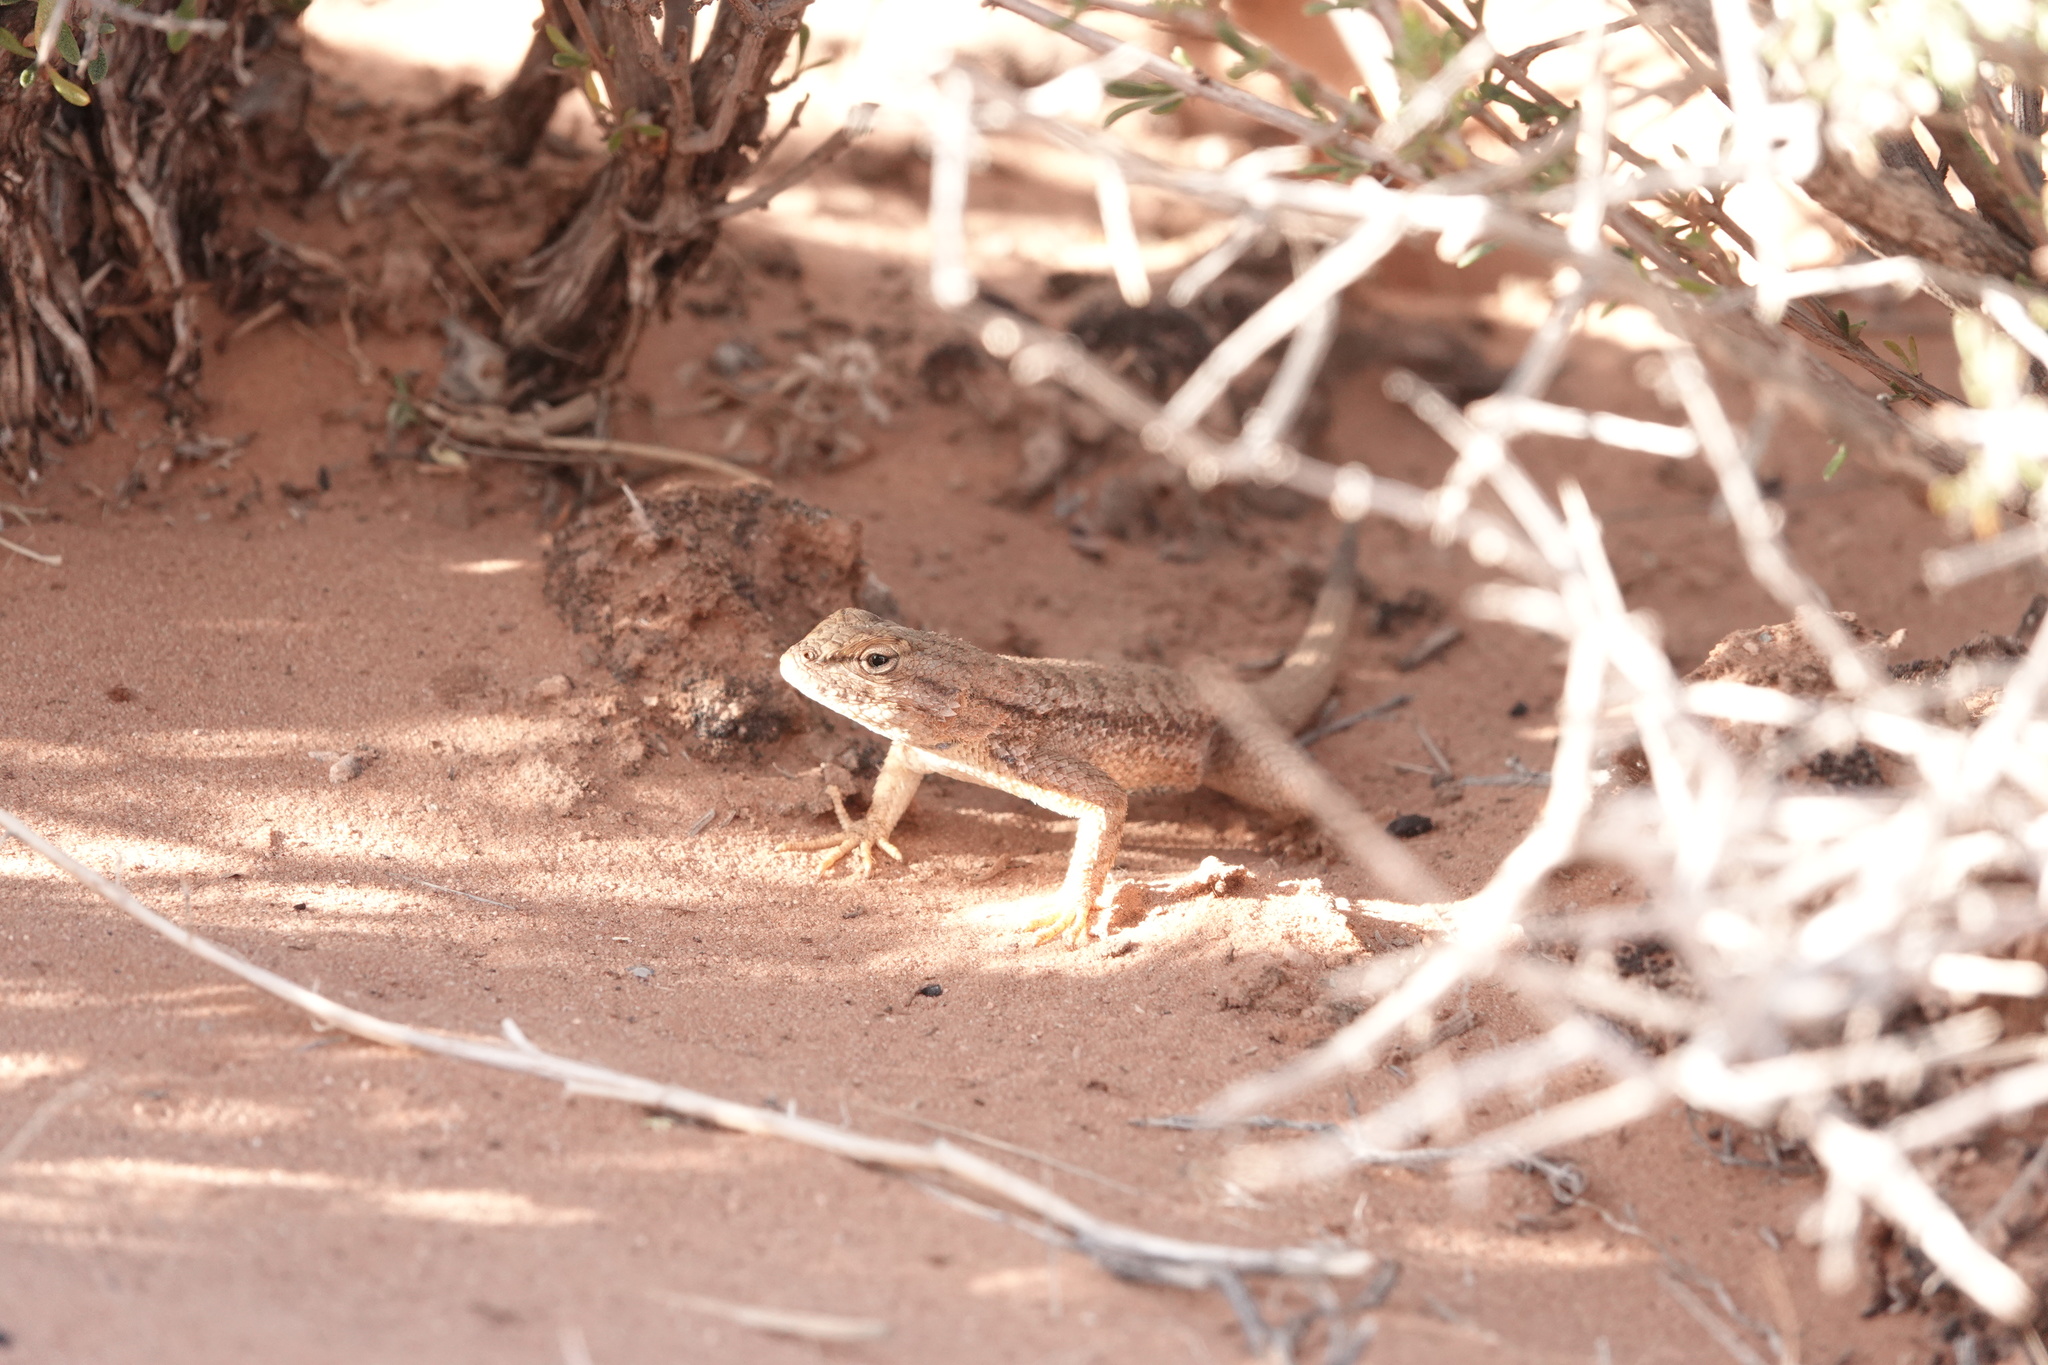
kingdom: Animalia
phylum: Chordata
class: Squamata
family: Phrynosomatidae
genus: Sceloporus
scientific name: Sceloporus tristichus
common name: Plateau fence lizard
